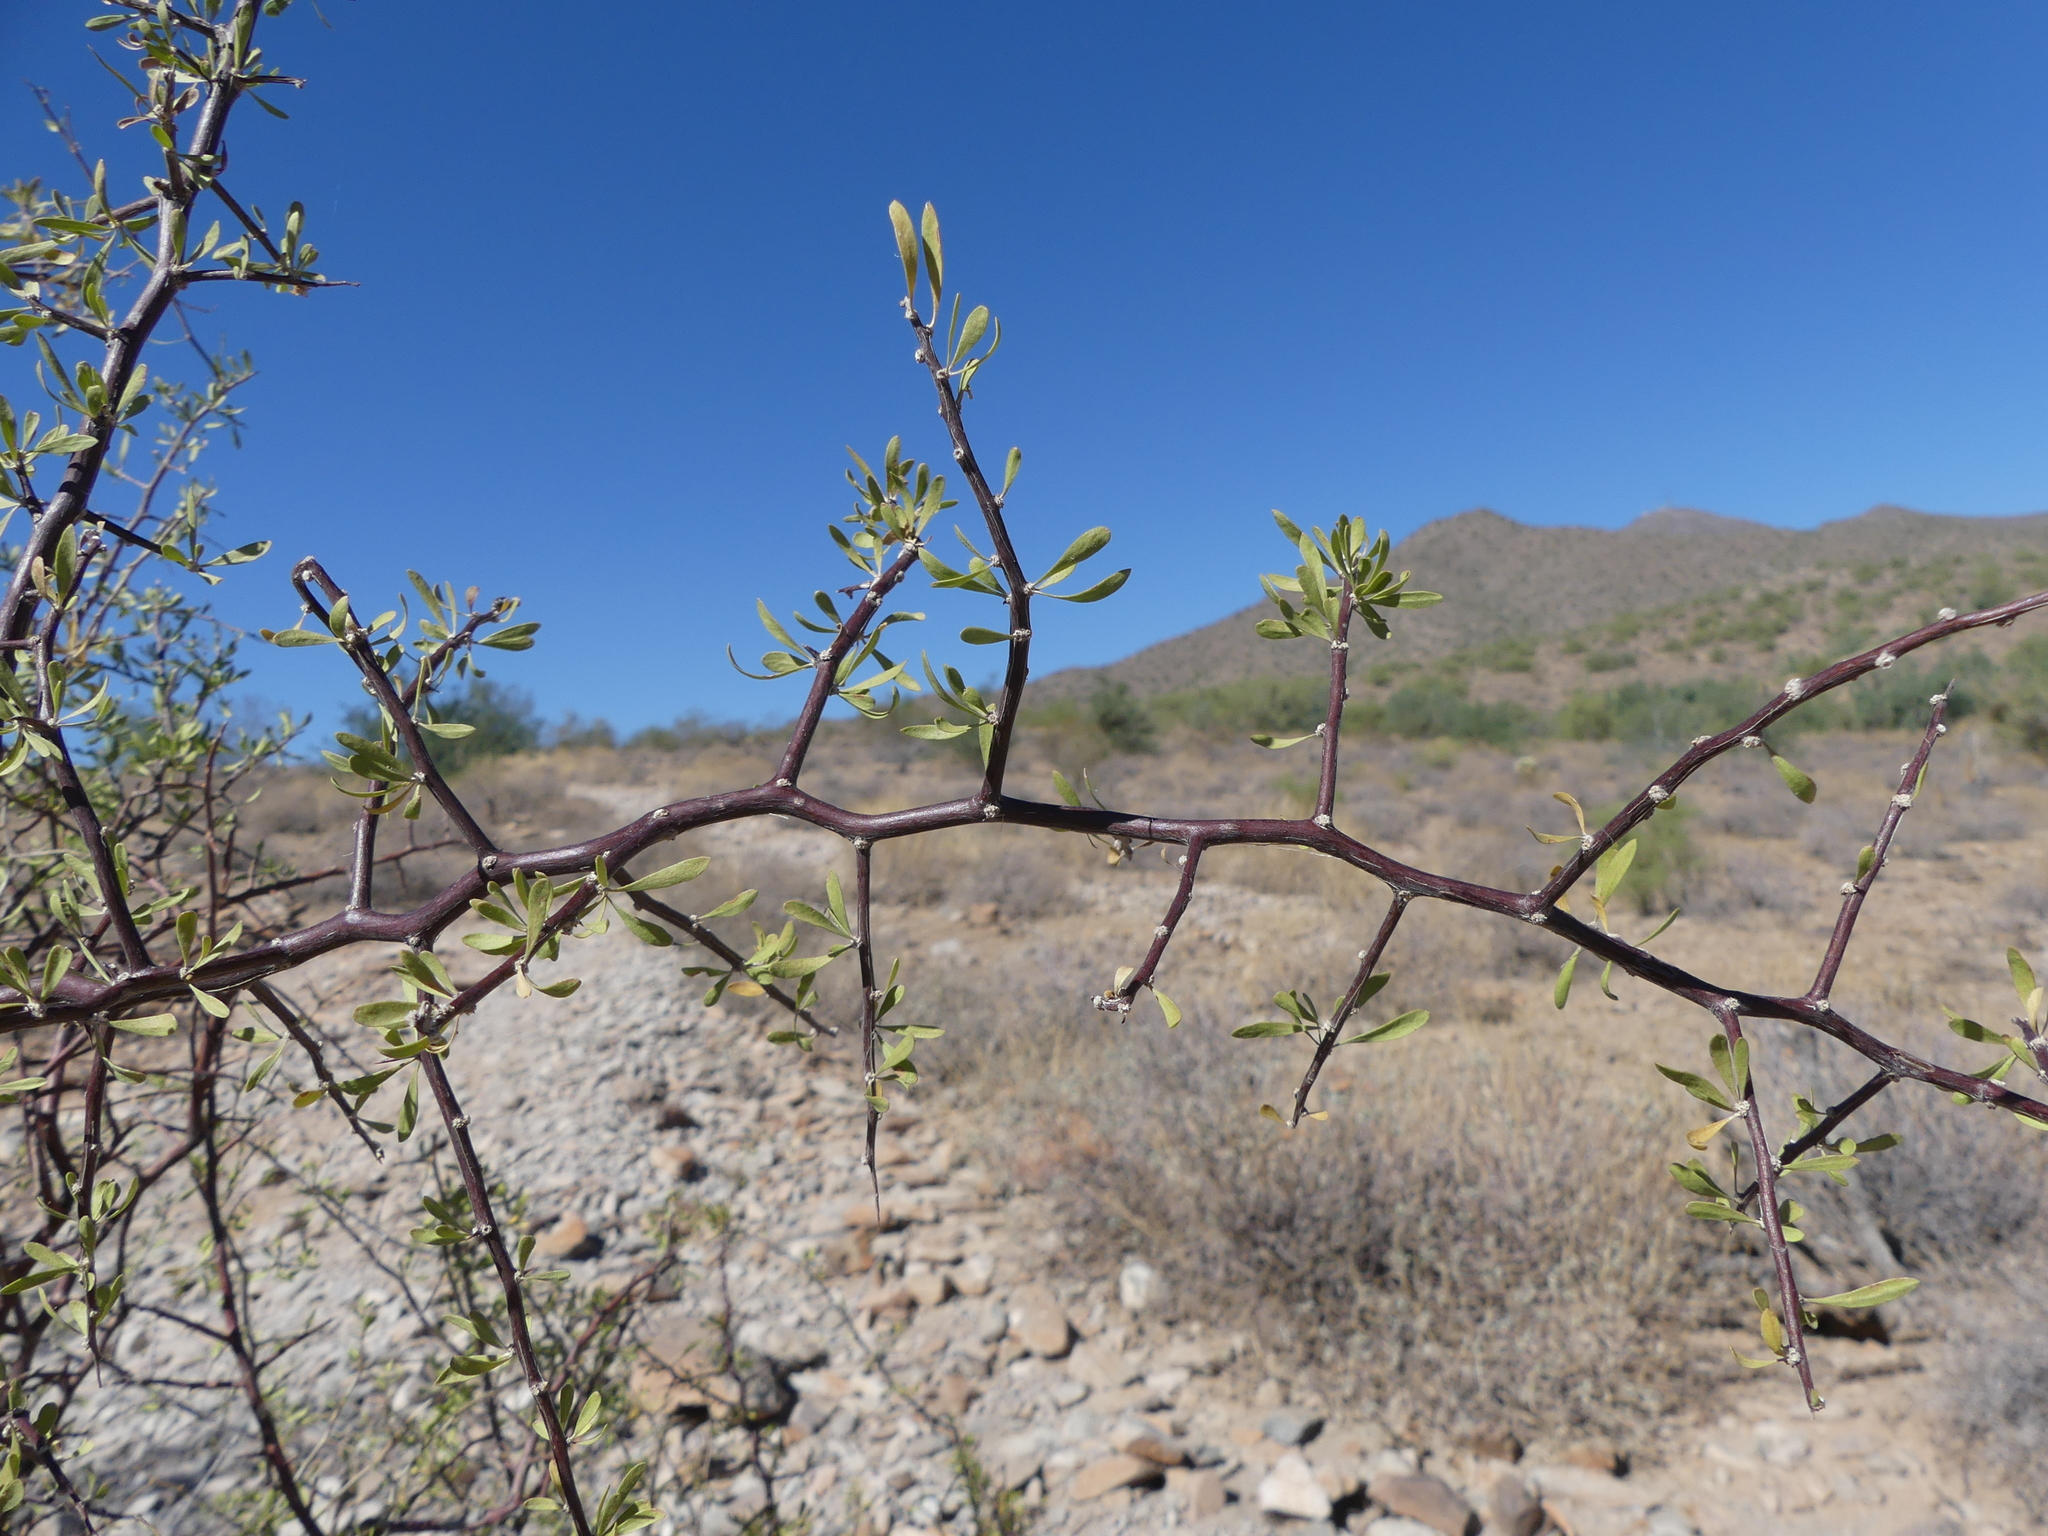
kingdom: Plantae
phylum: Tracheophyta
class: Magnoliopsida
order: Solanales
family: Solanaceae
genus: Lycium
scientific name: Lycium berlandieri
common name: Berlandier wolfberry
